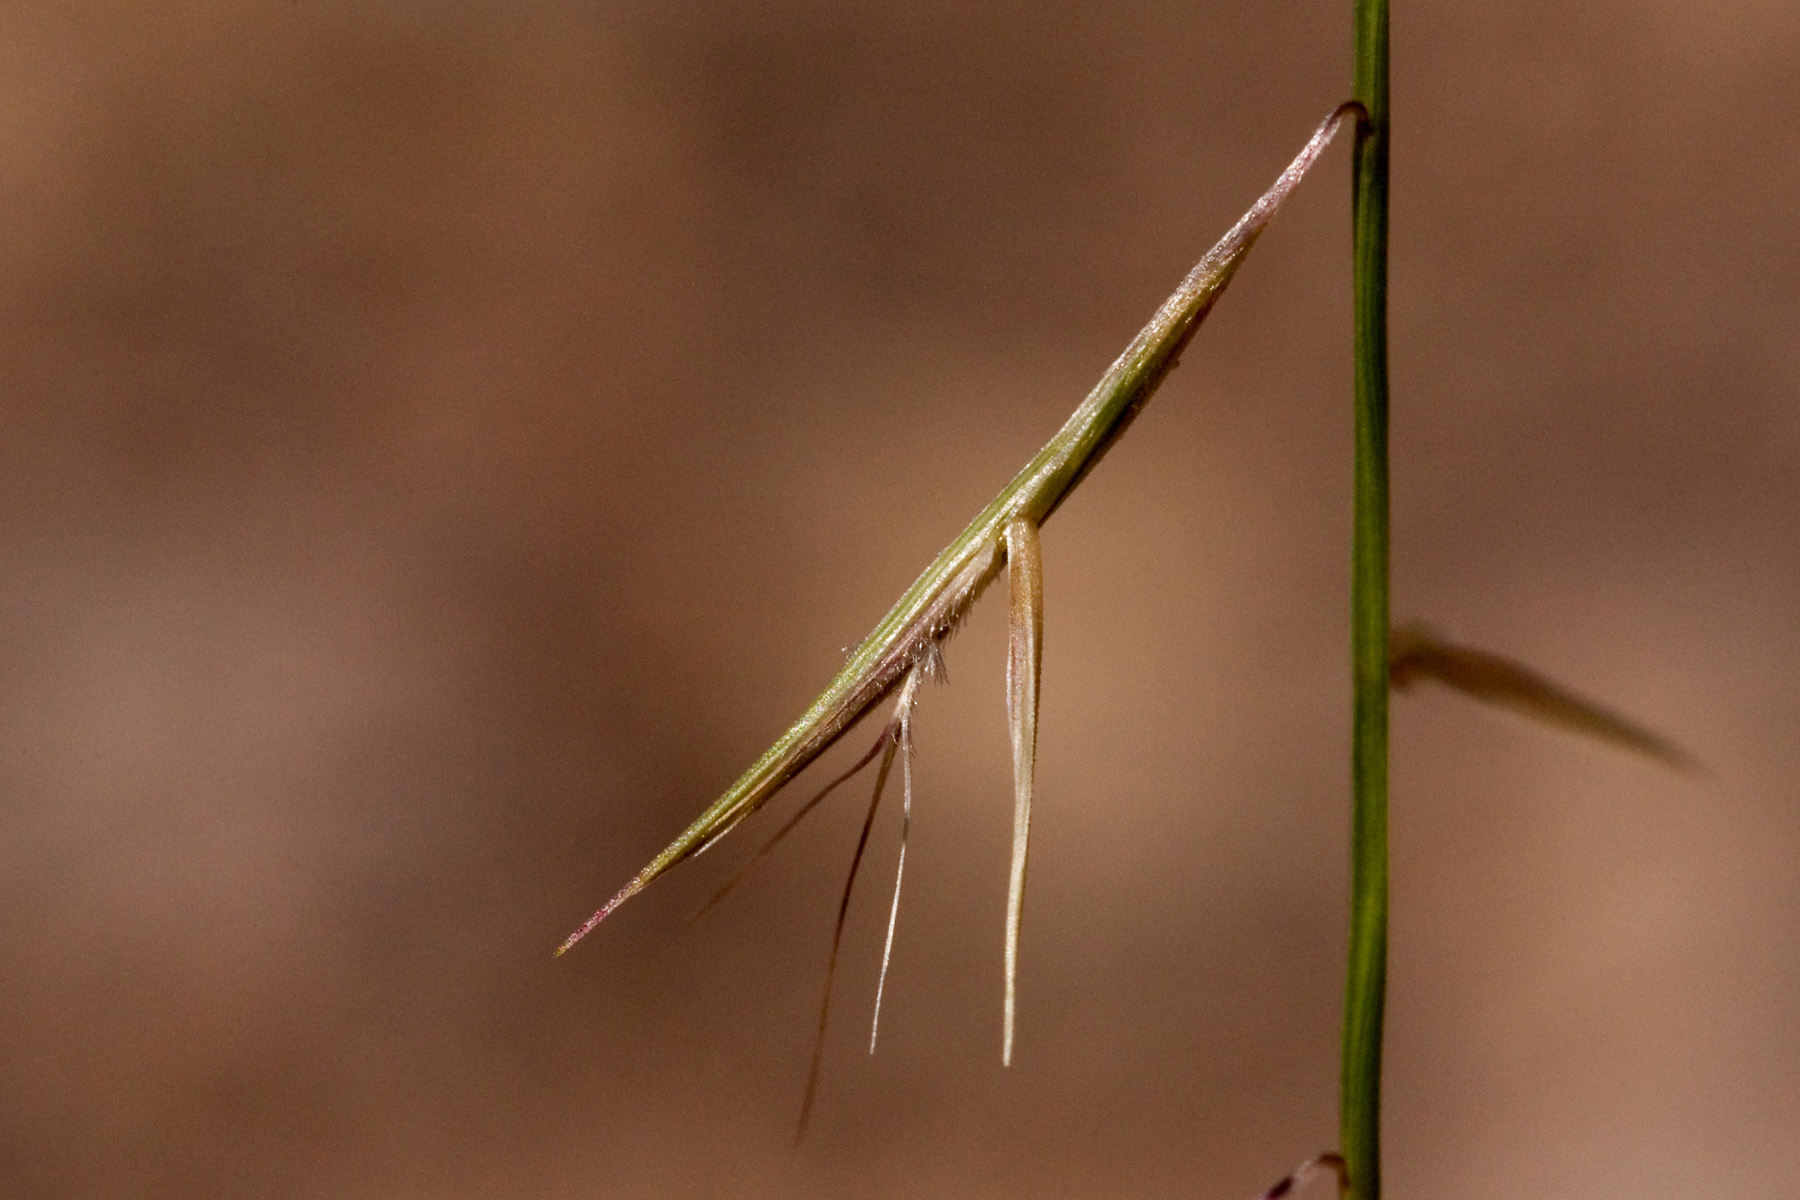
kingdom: Plantae
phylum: Tracheophyta
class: Liliopsida
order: Poales
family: Poaceae
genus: Bouteloua
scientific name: Bouteloua aristidoides
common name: Needle grama
